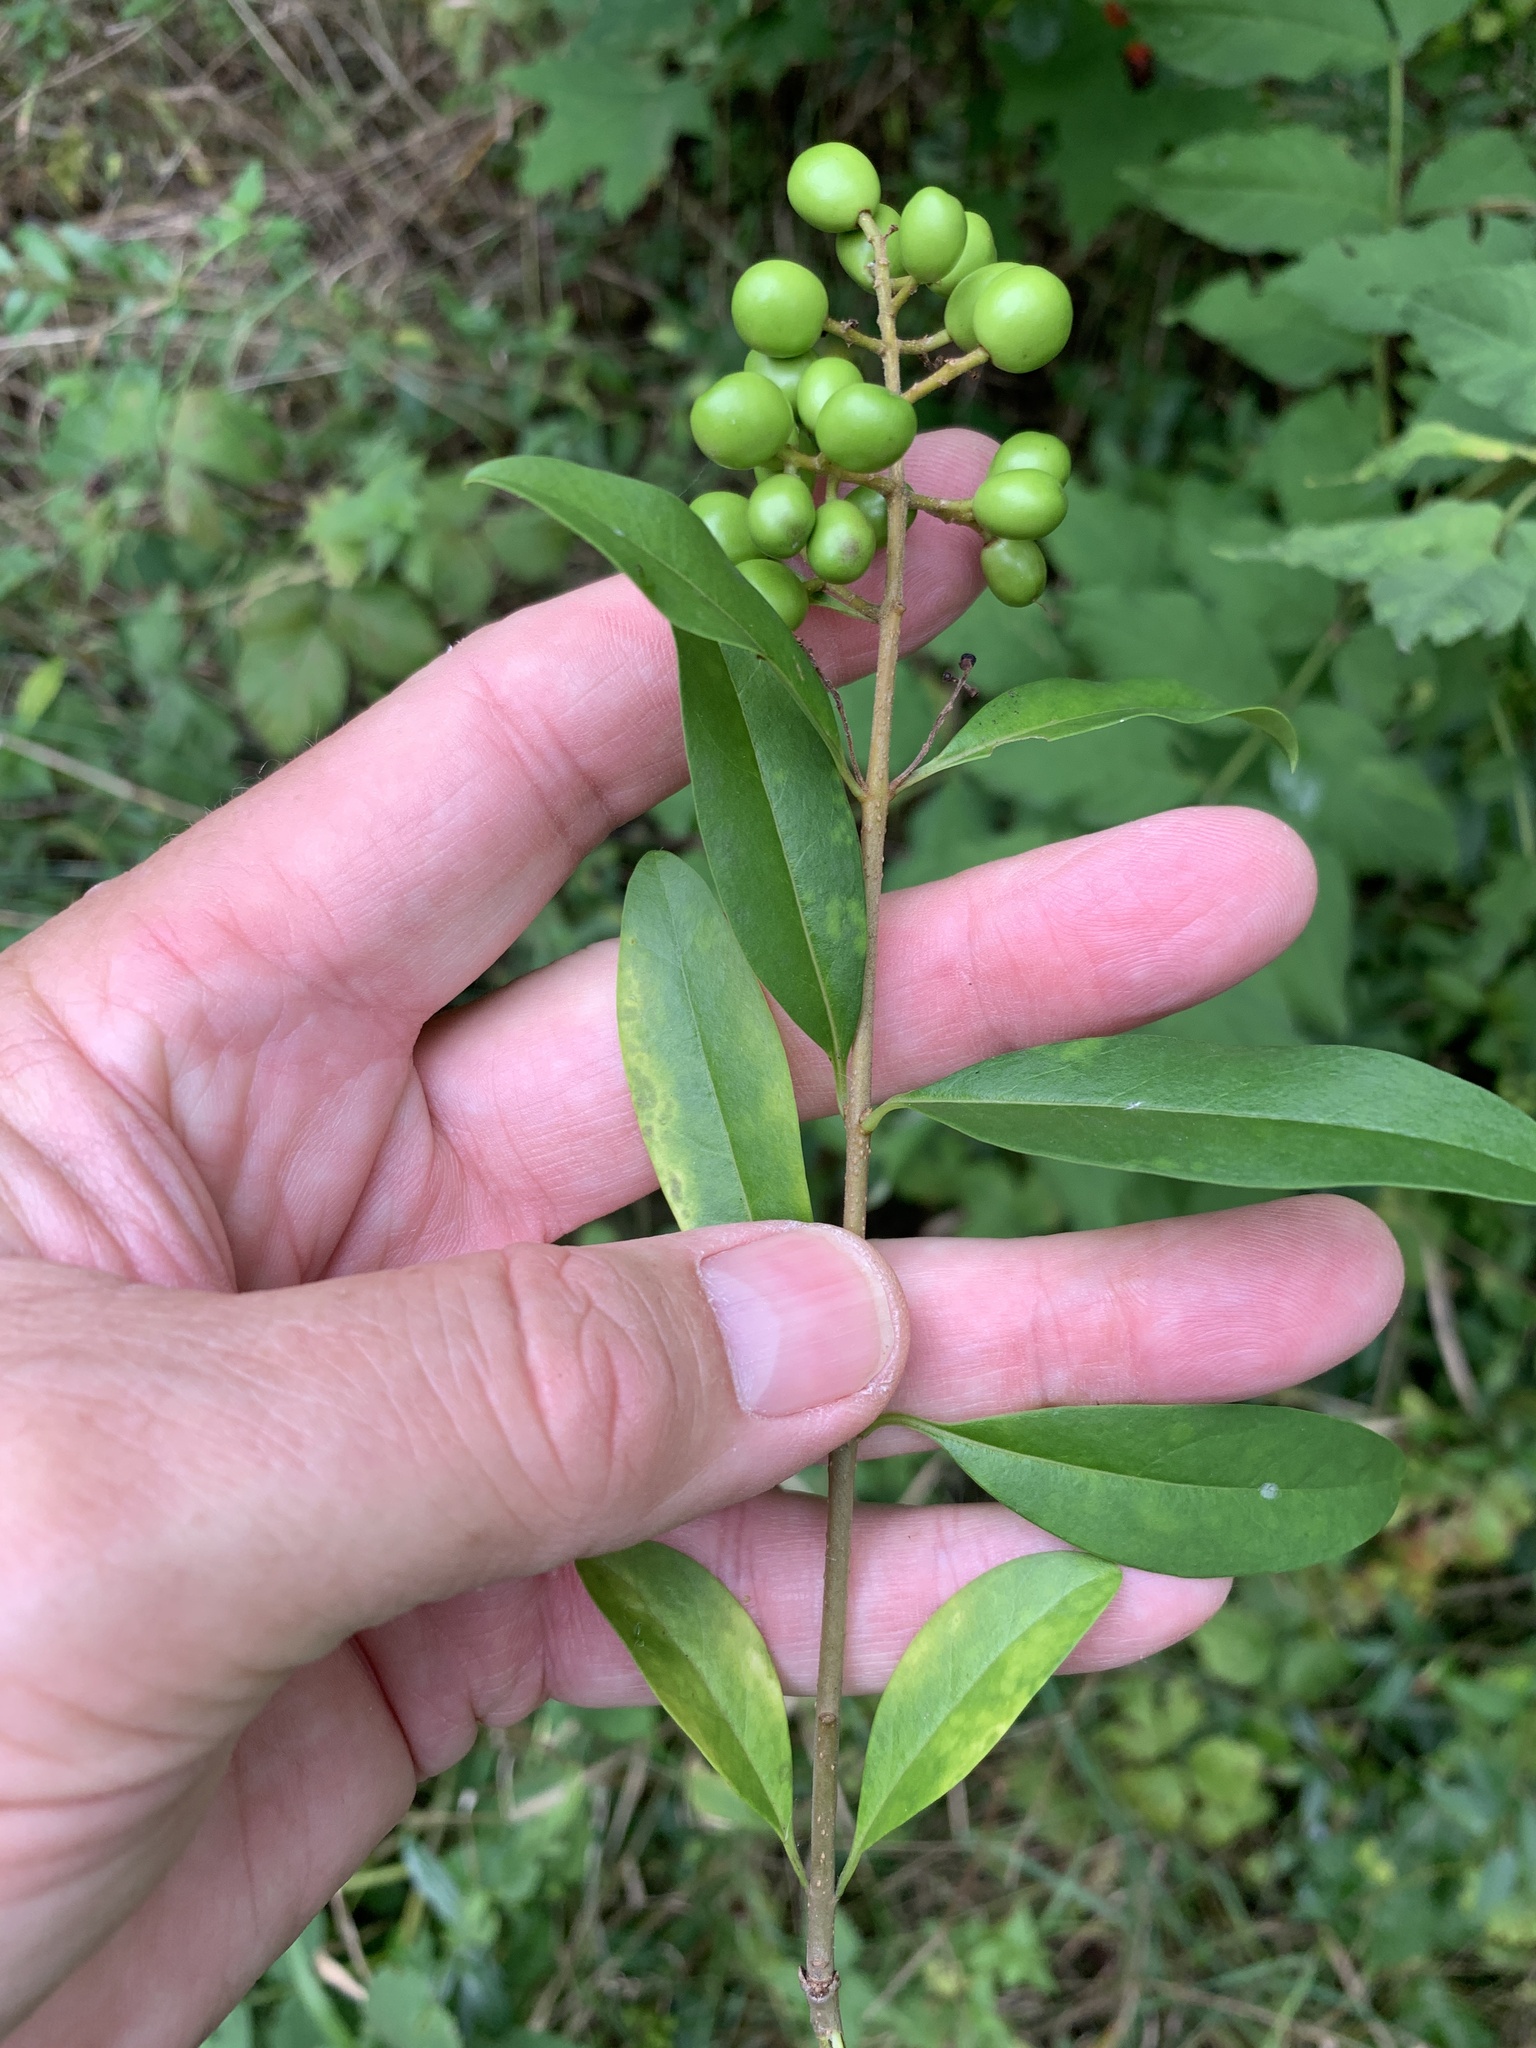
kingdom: Plantae
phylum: Tracheophyta
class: Magnoliopsida
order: Lamiales
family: Oleaceae
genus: Ligustrum
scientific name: Ligustrum vulgare
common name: Wild privet
